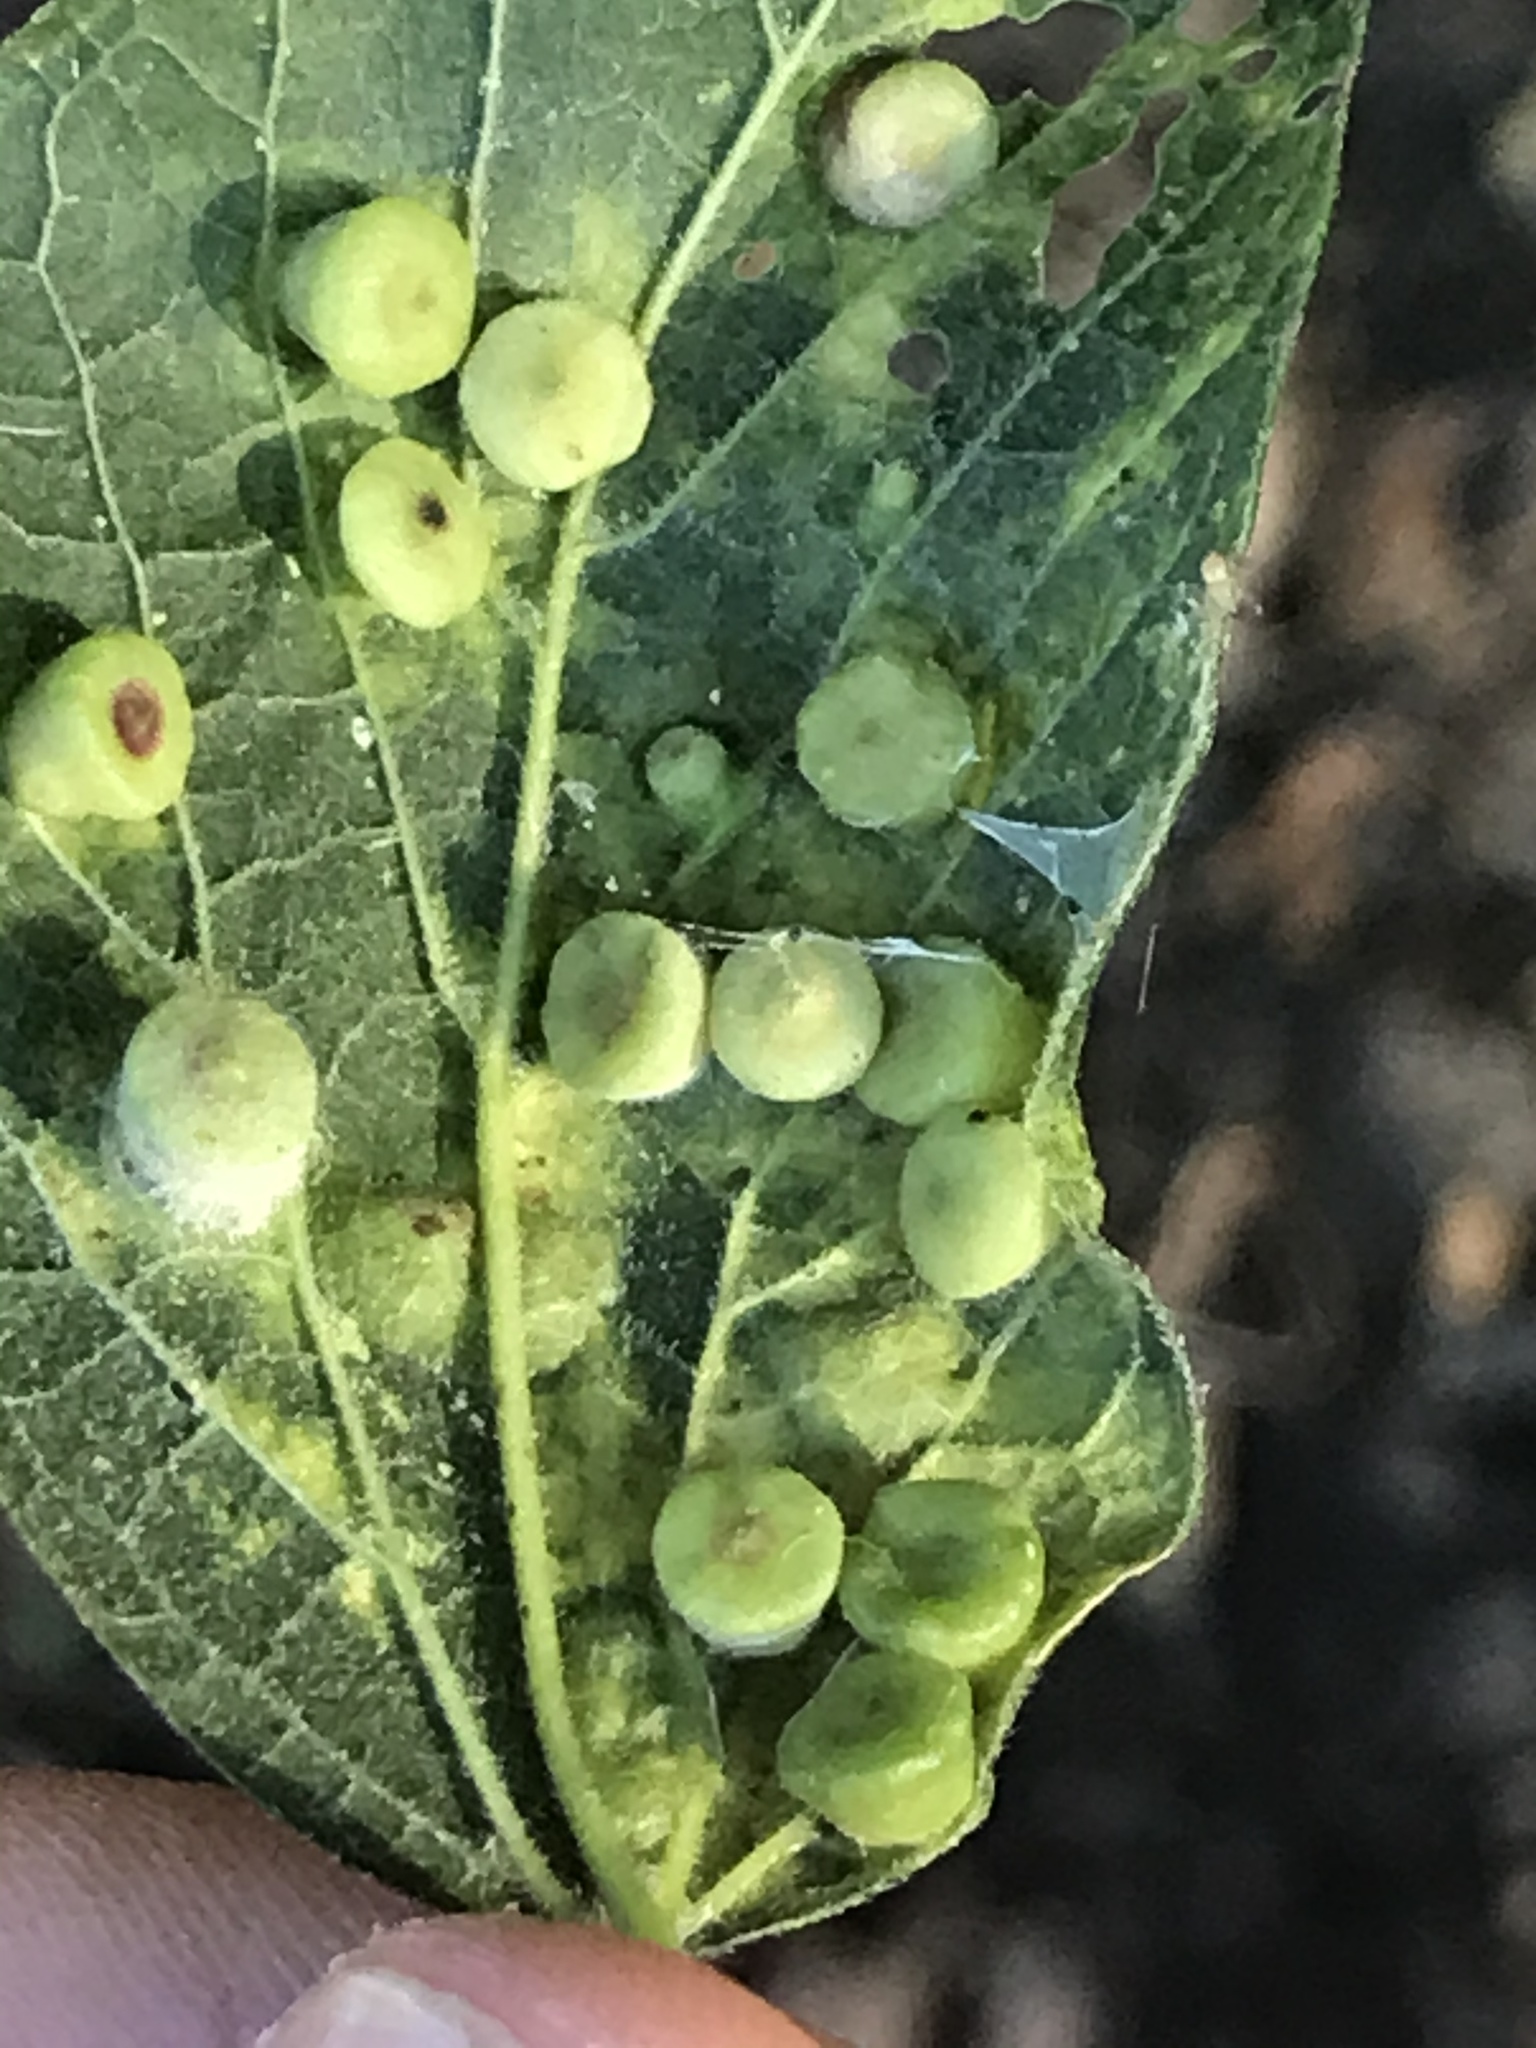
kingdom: Animalia
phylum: Arthropoda
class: Insecta
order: Hemiptera
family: Aphalaridae
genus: Pachypsylla
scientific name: Pachypsylla celtidismamma
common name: Hackberry nipplegall psyllid
